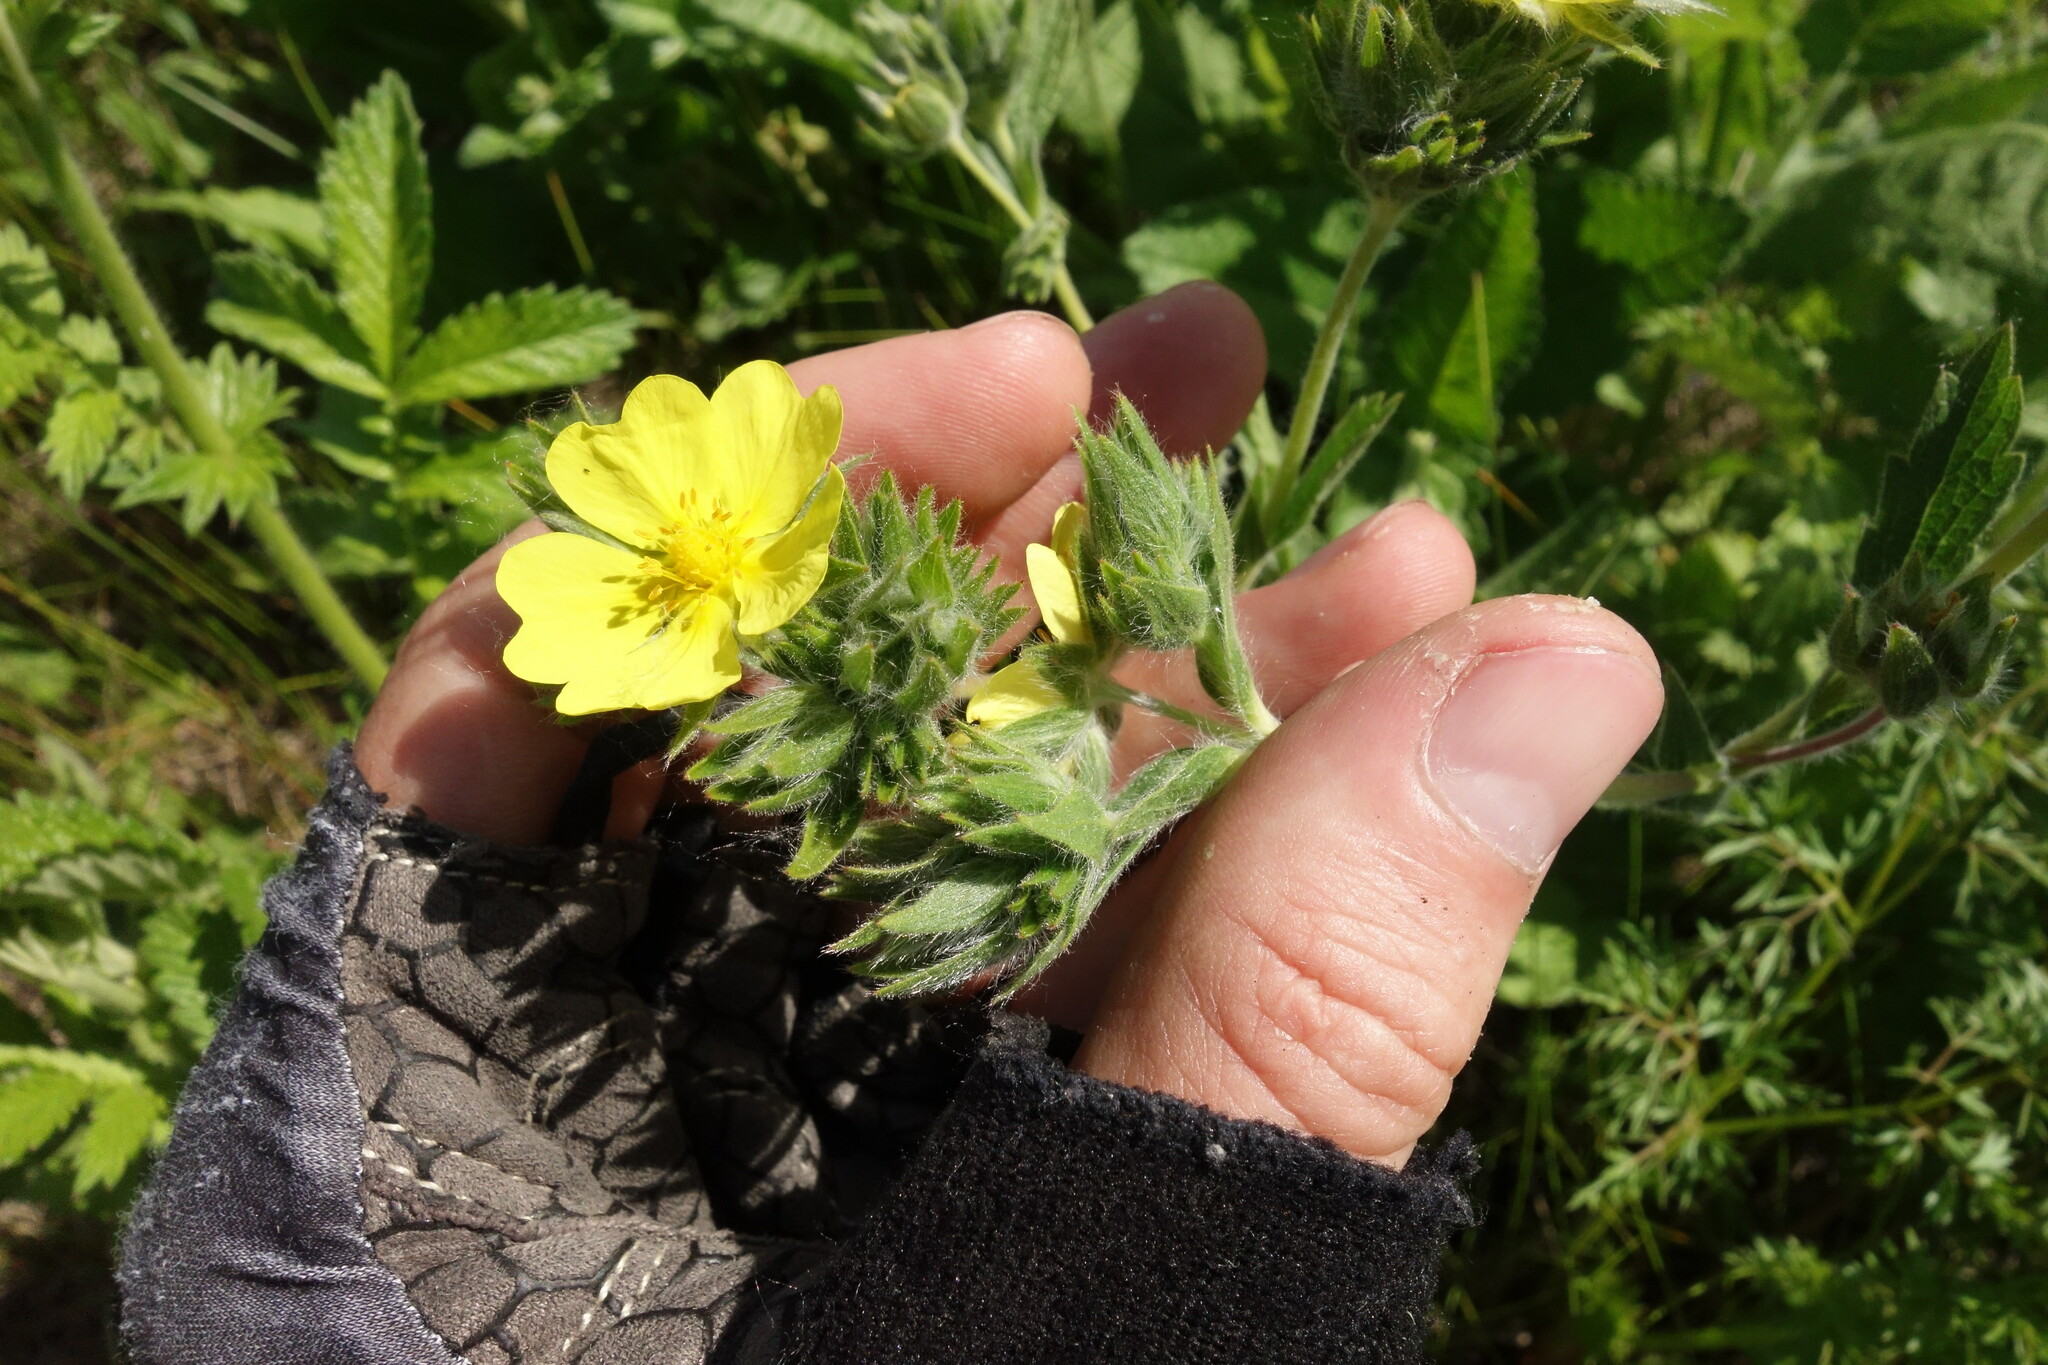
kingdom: Plantae
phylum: Tracheophyta
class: Magnoliopsida
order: Rosales
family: Rosaceae
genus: Potentilla
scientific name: Potentilla recta
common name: Sulphur cinquefoil
